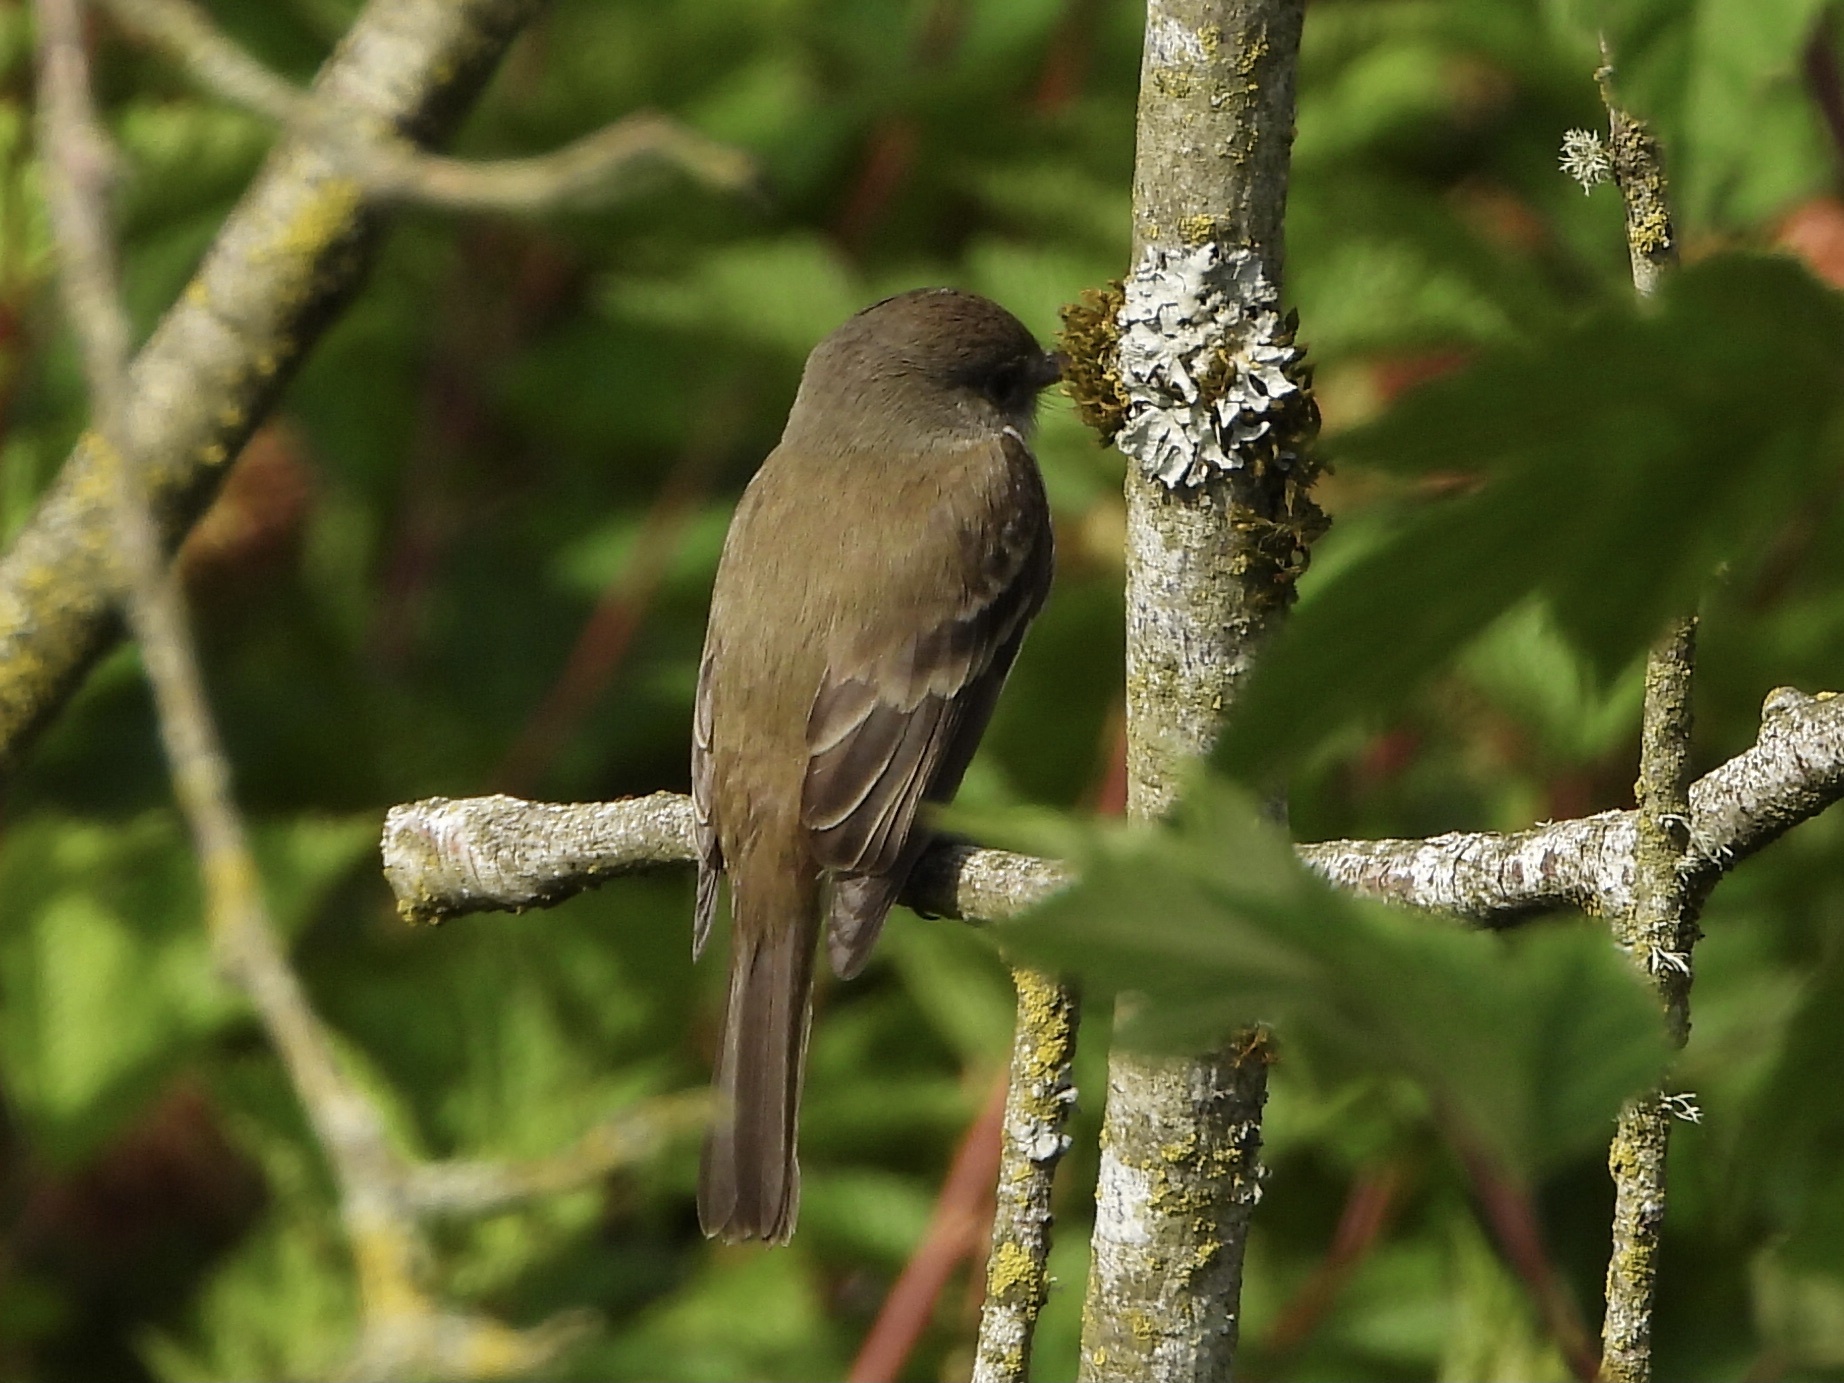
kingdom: Animalia
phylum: Chordata
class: Aves
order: Passeriformes
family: Tyrannidae
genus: Empidonax
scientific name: Empidonax traillii
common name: Willow flycatcher
